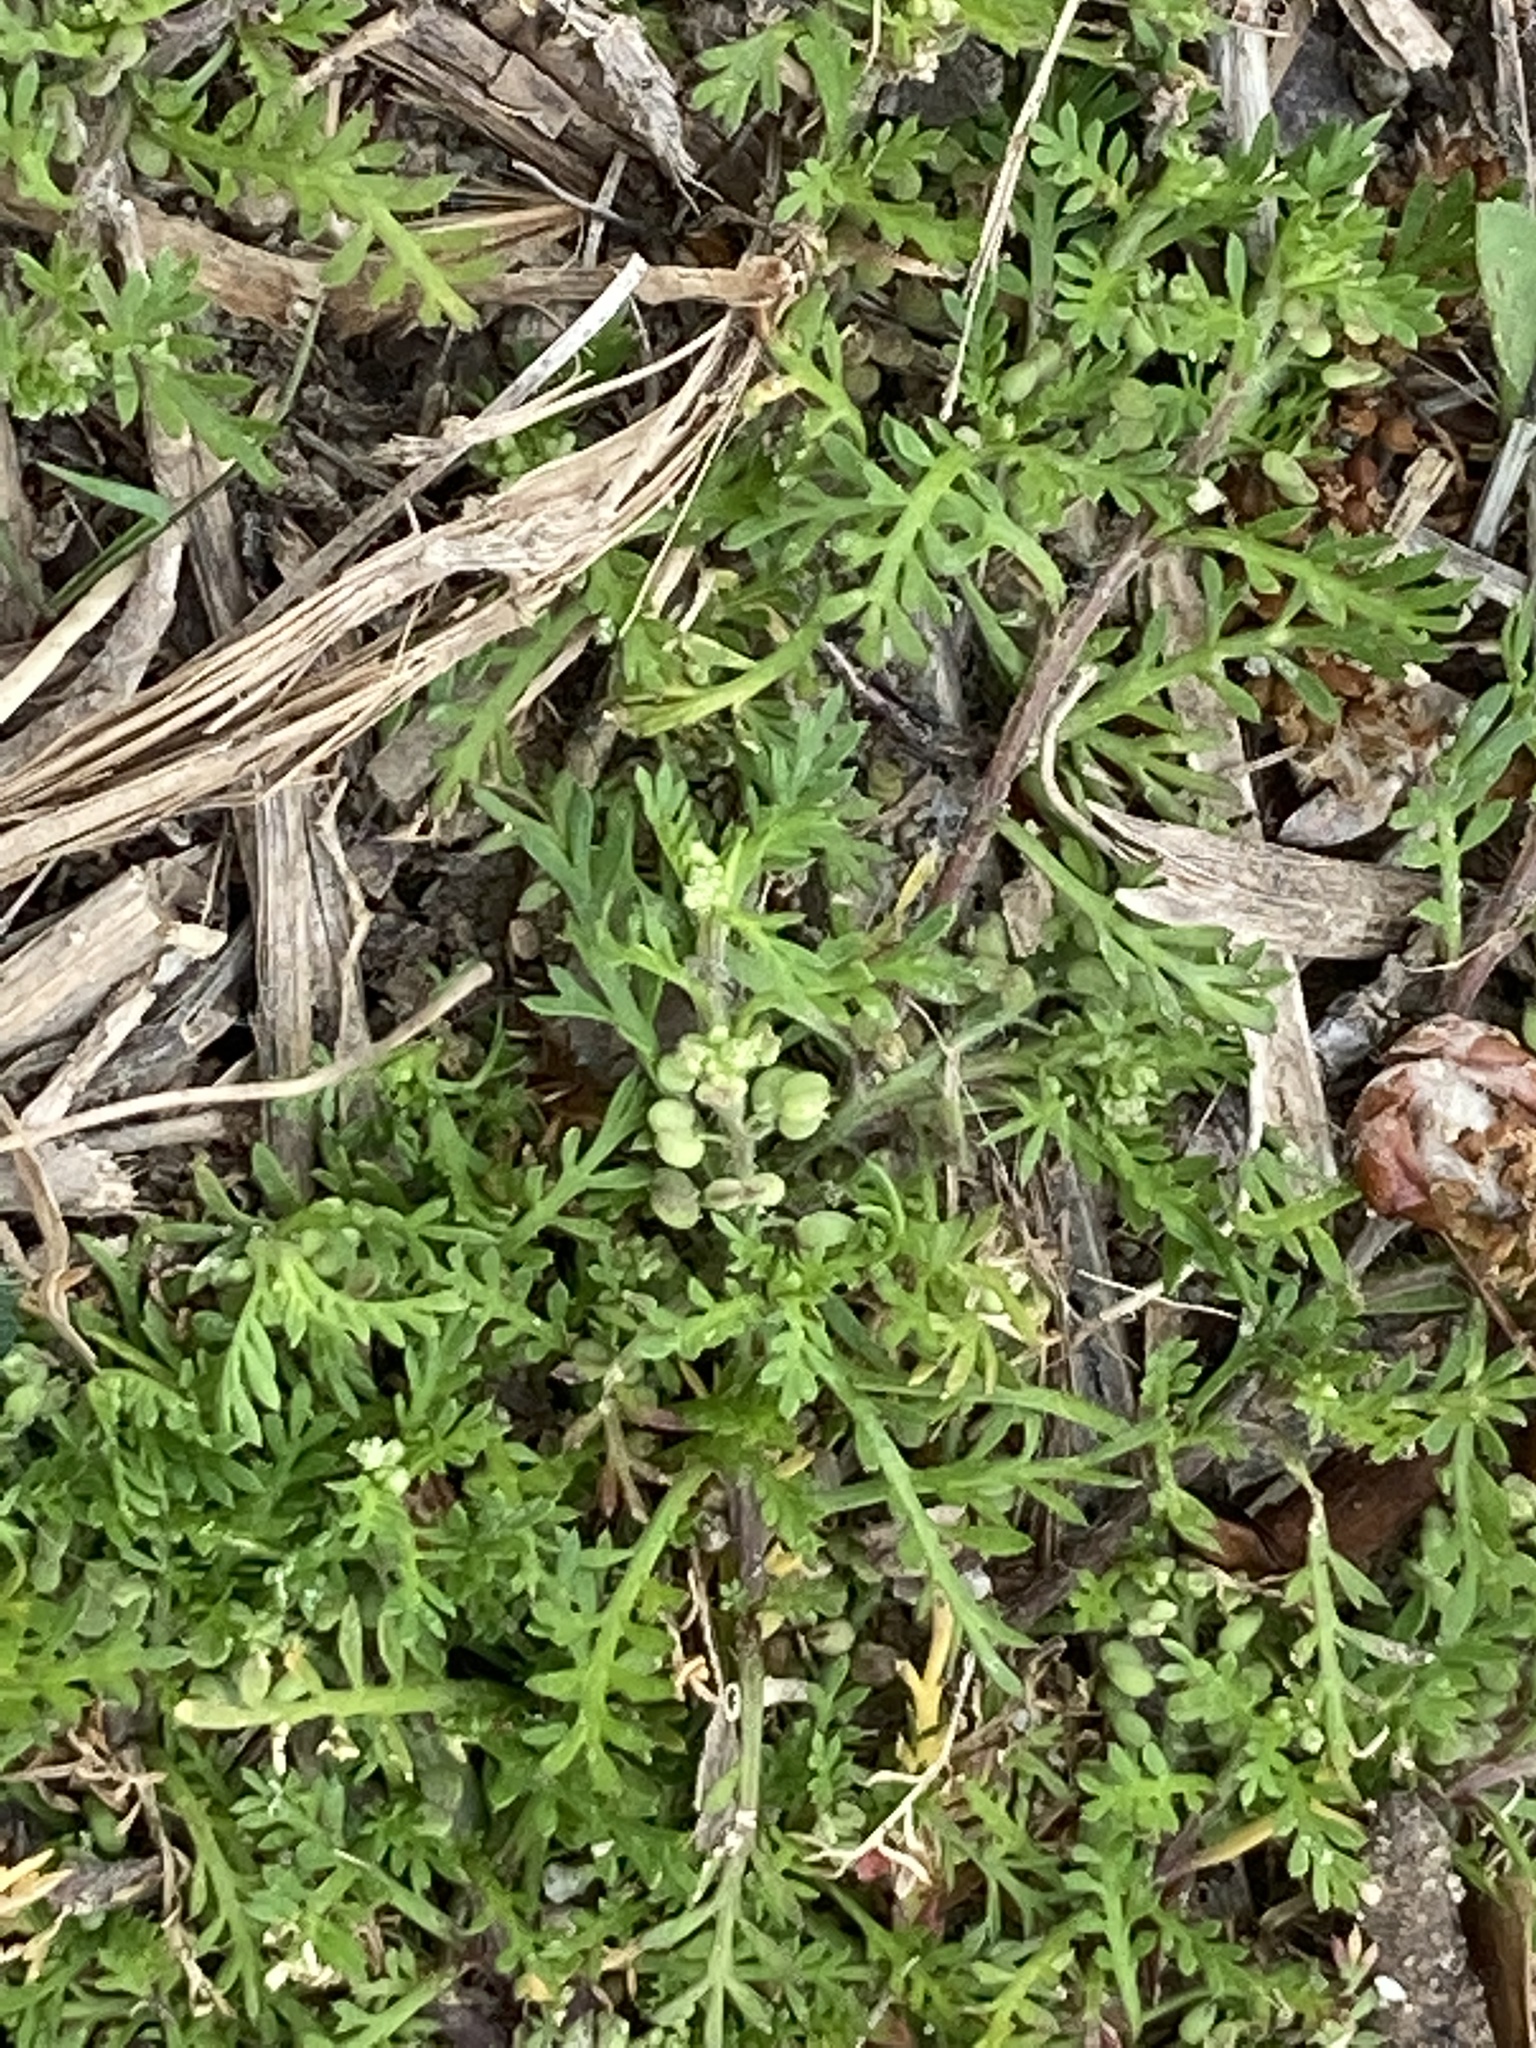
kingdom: Plantae
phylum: Tracheophyta
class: Magnoliopsida
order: Brassicales
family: Brassicaceae
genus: Lepidium
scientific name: Lepidium didymum
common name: Lesser swinecress
